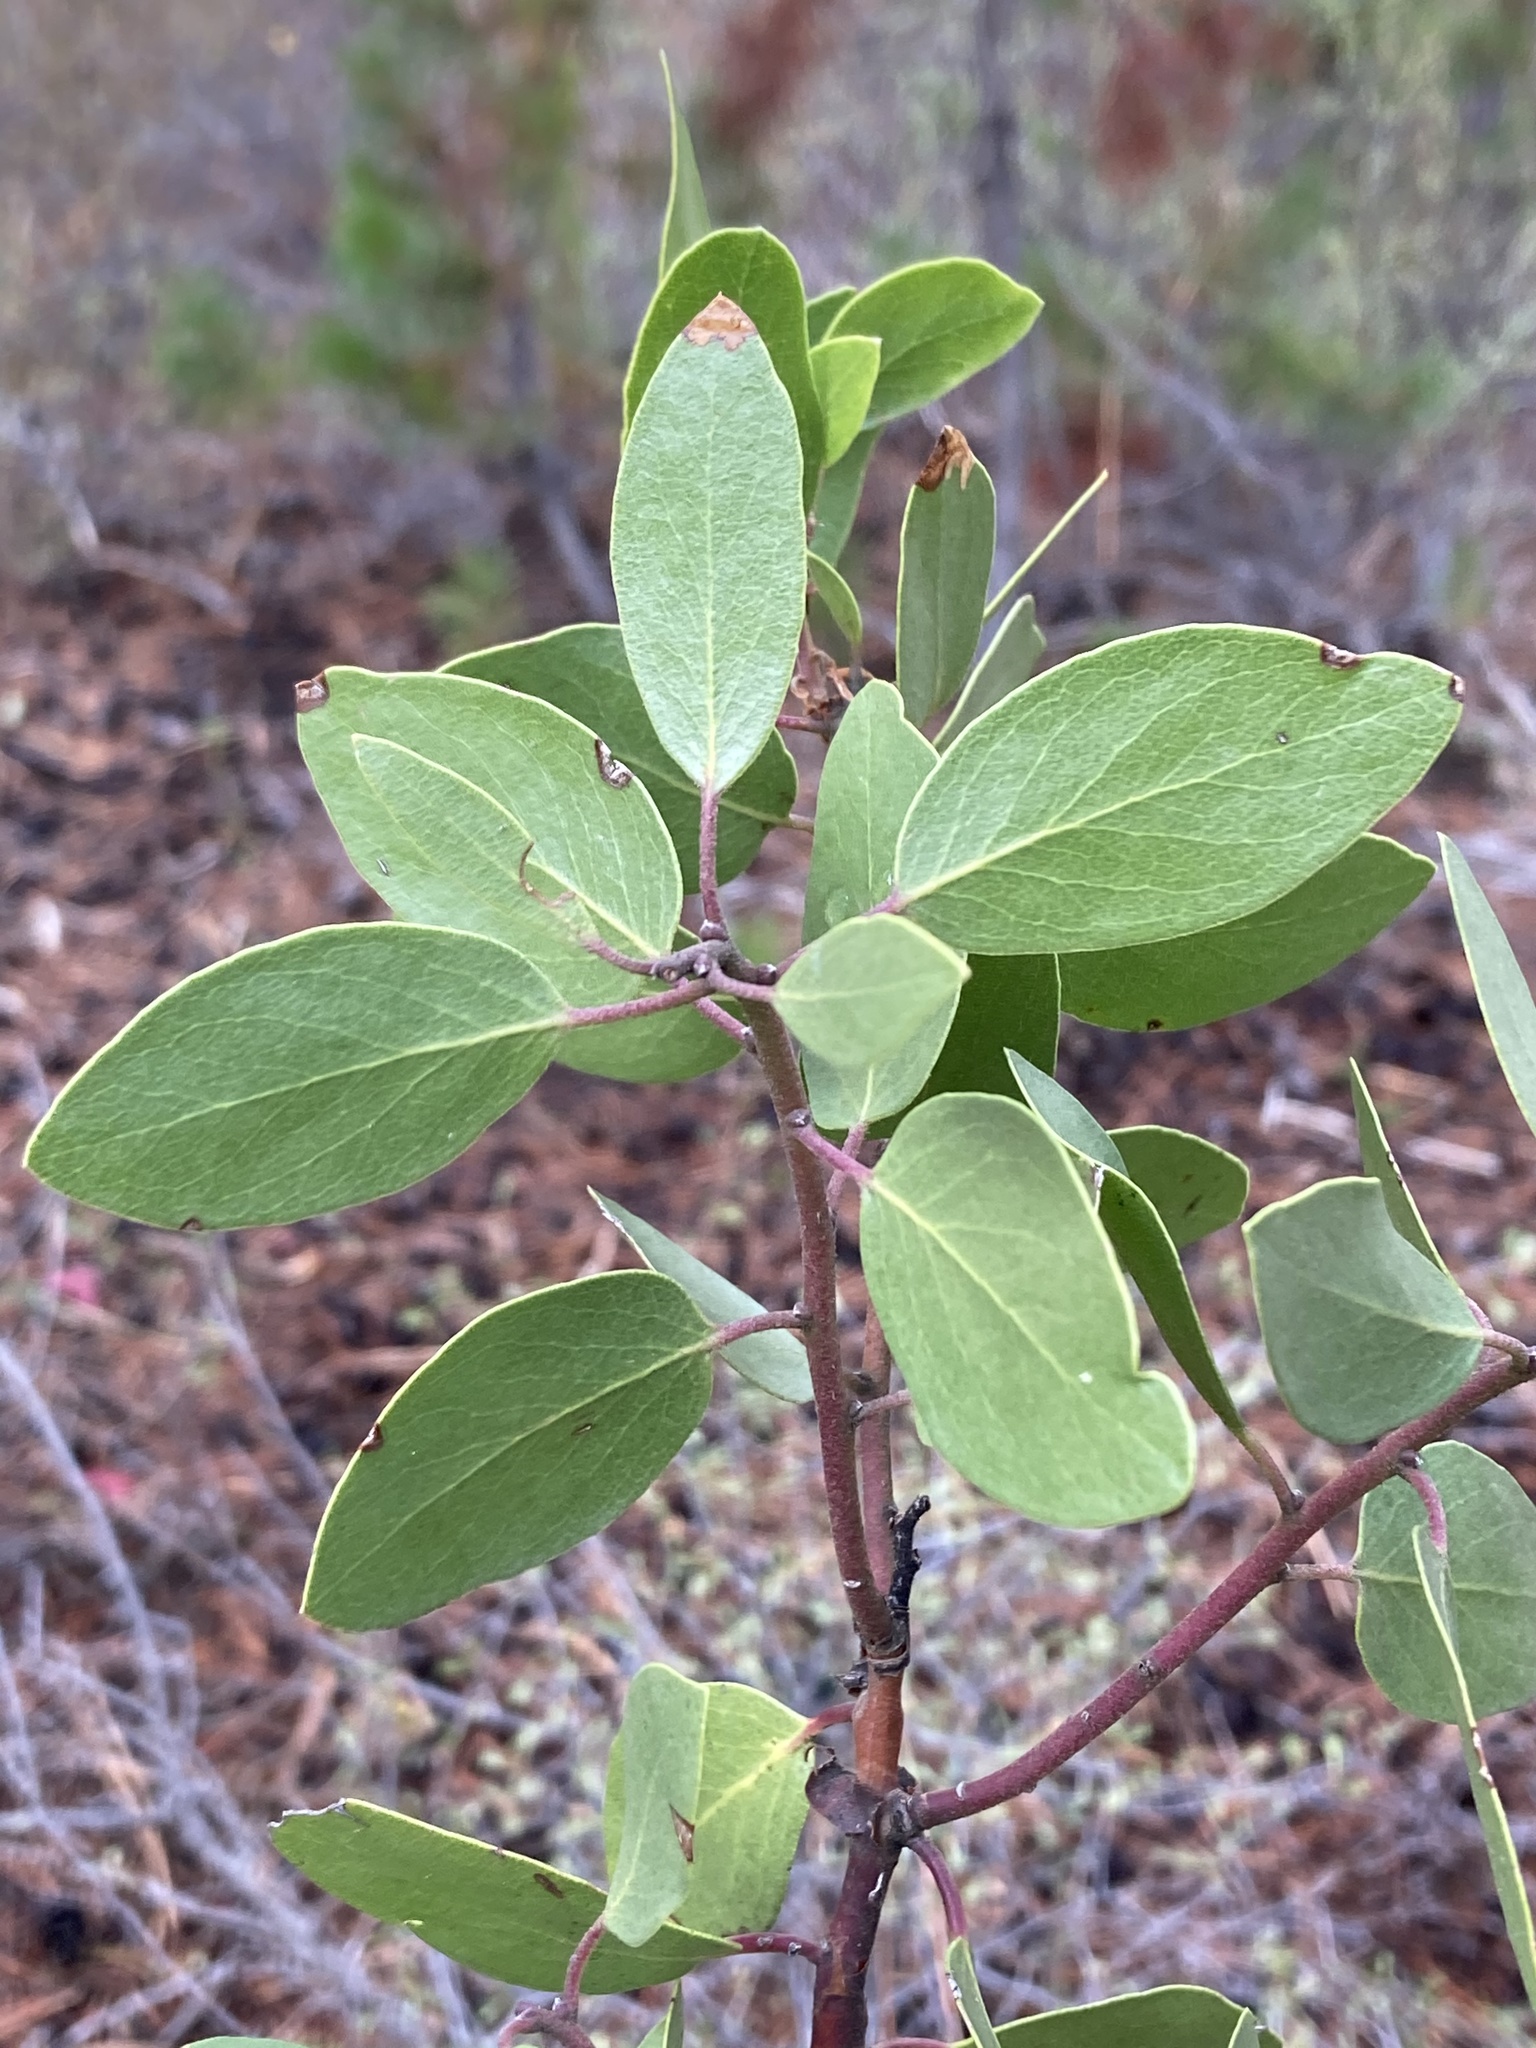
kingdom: Plantae
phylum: Tracheophyta
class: Magnoliopsida
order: Ericales
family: Ericaceae
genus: Arctostaphylos
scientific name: Arctostaphylos patula
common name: Green-leaf manzanita
